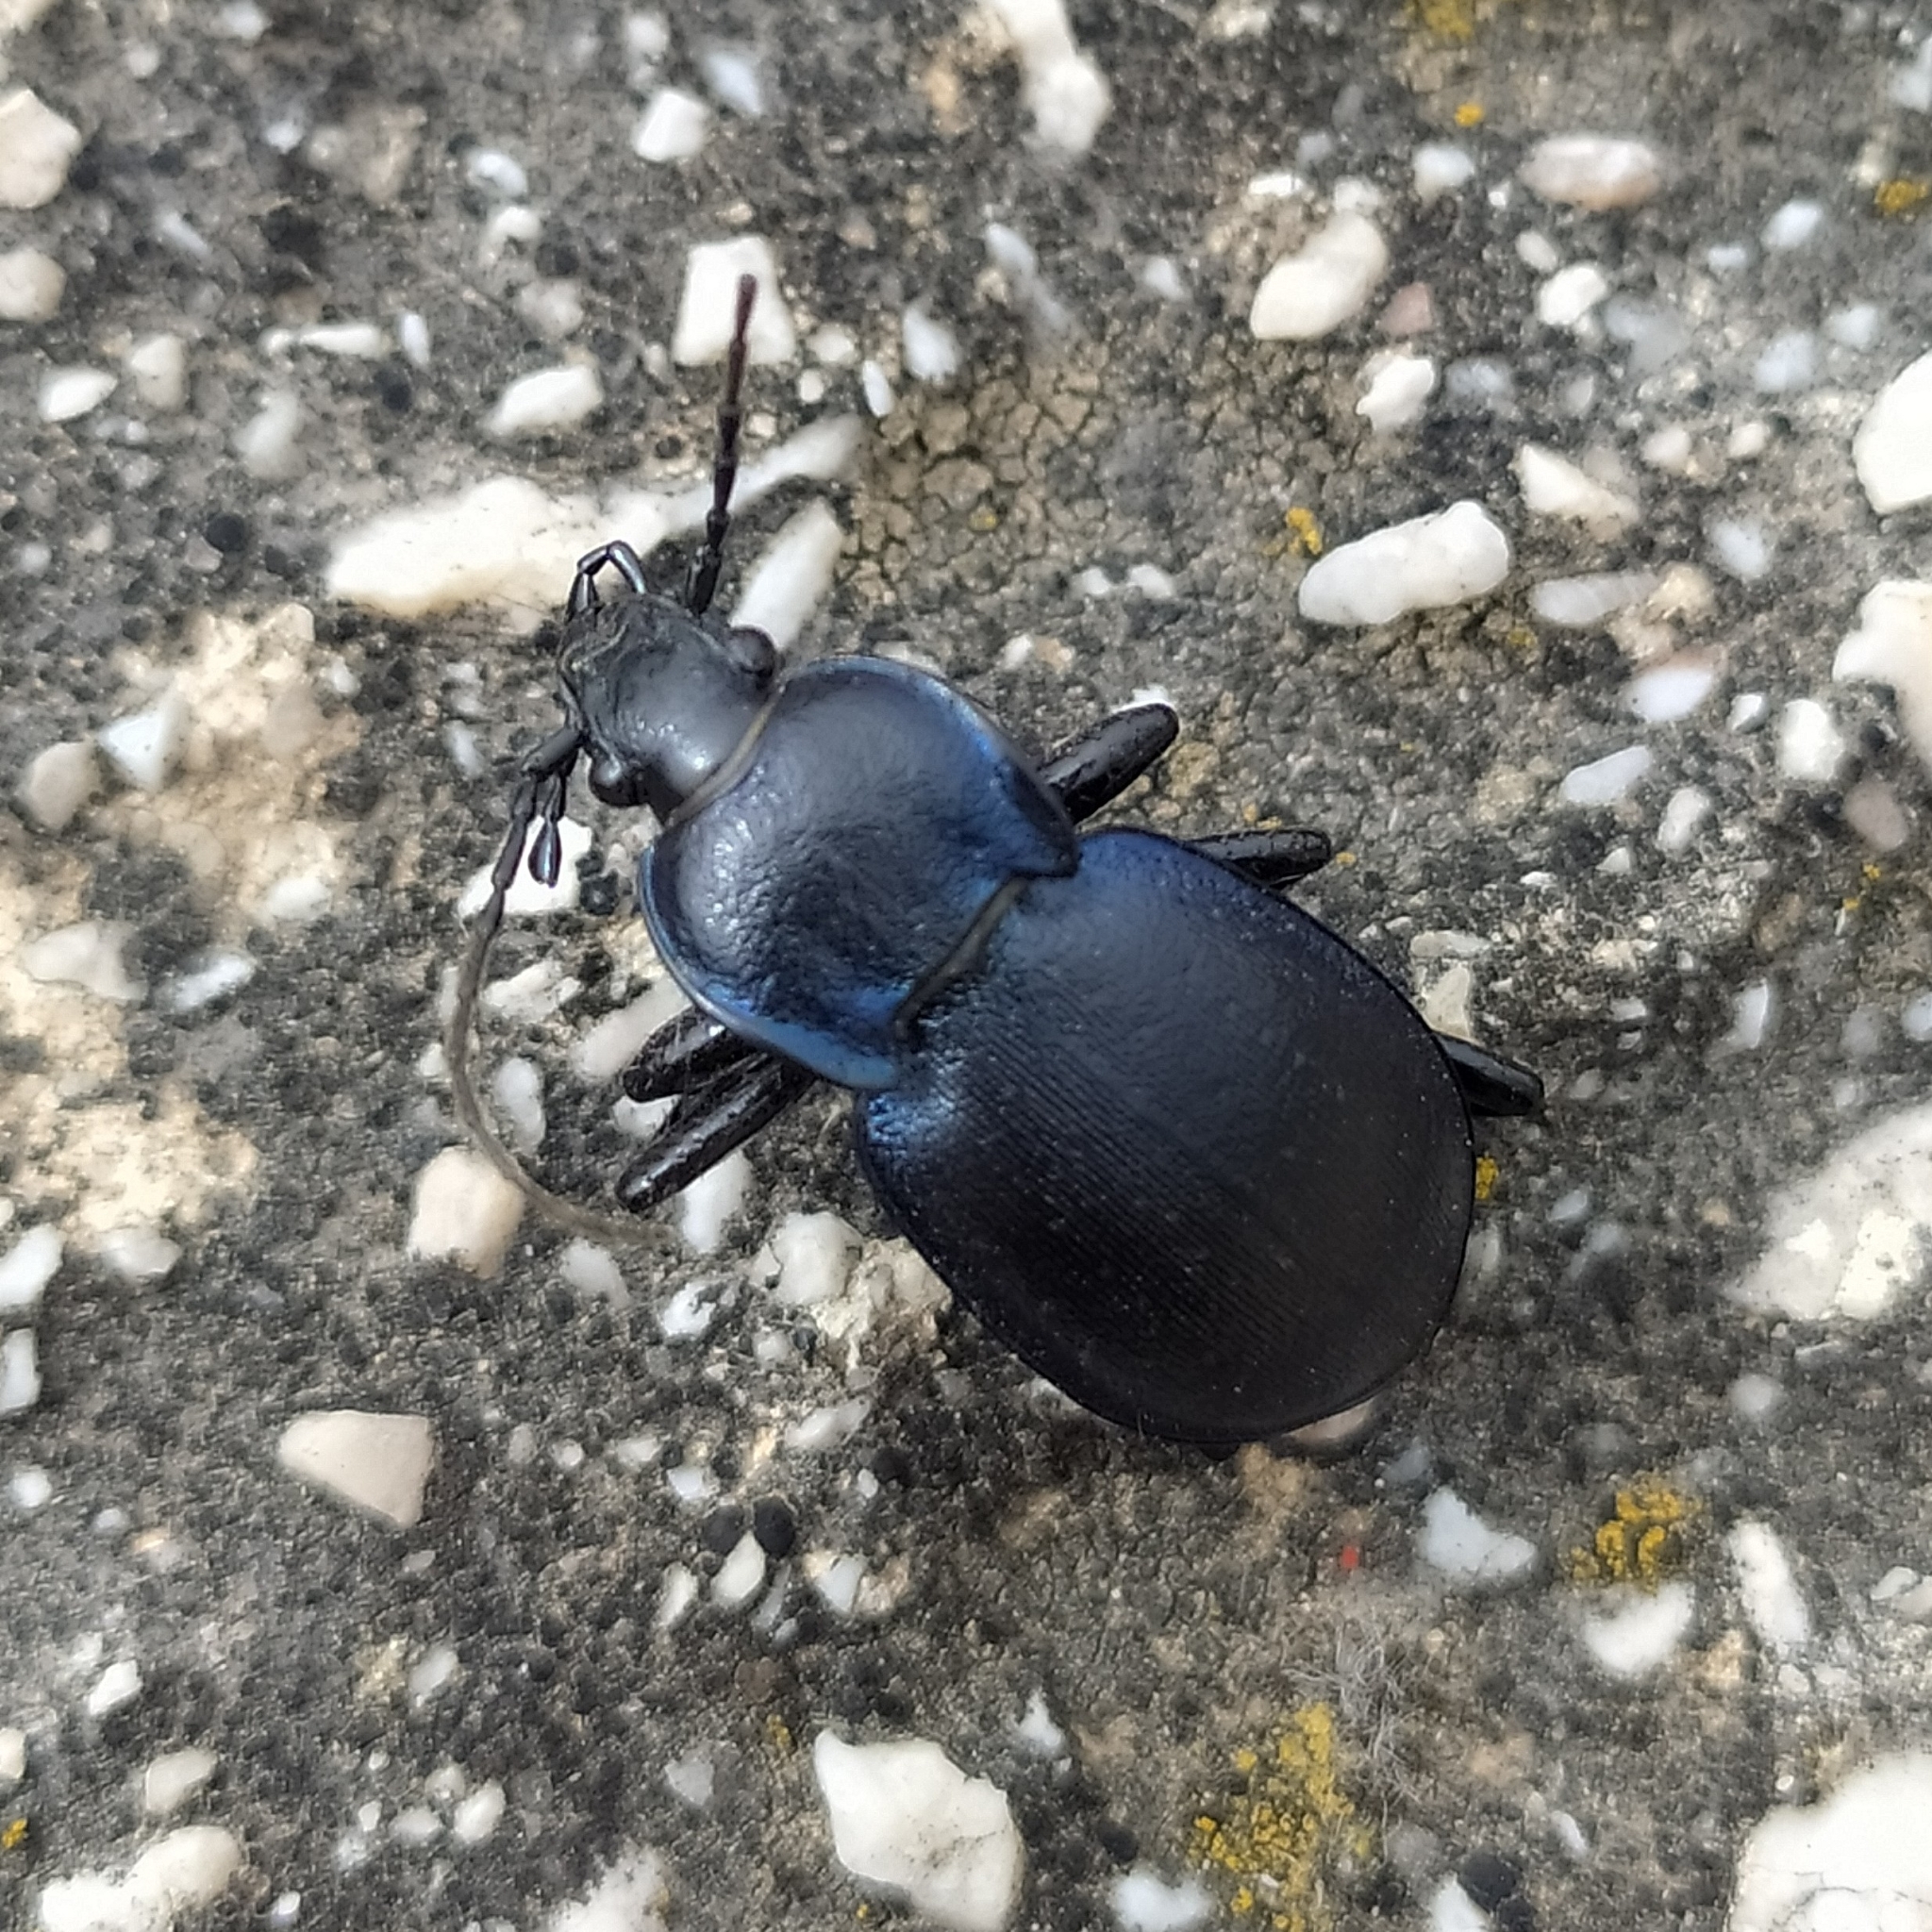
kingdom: Animalia
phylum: Arthropoda
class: Insecta
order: Coleoptera
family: Carabidae
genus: Carabus
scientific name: Carabus convexus
